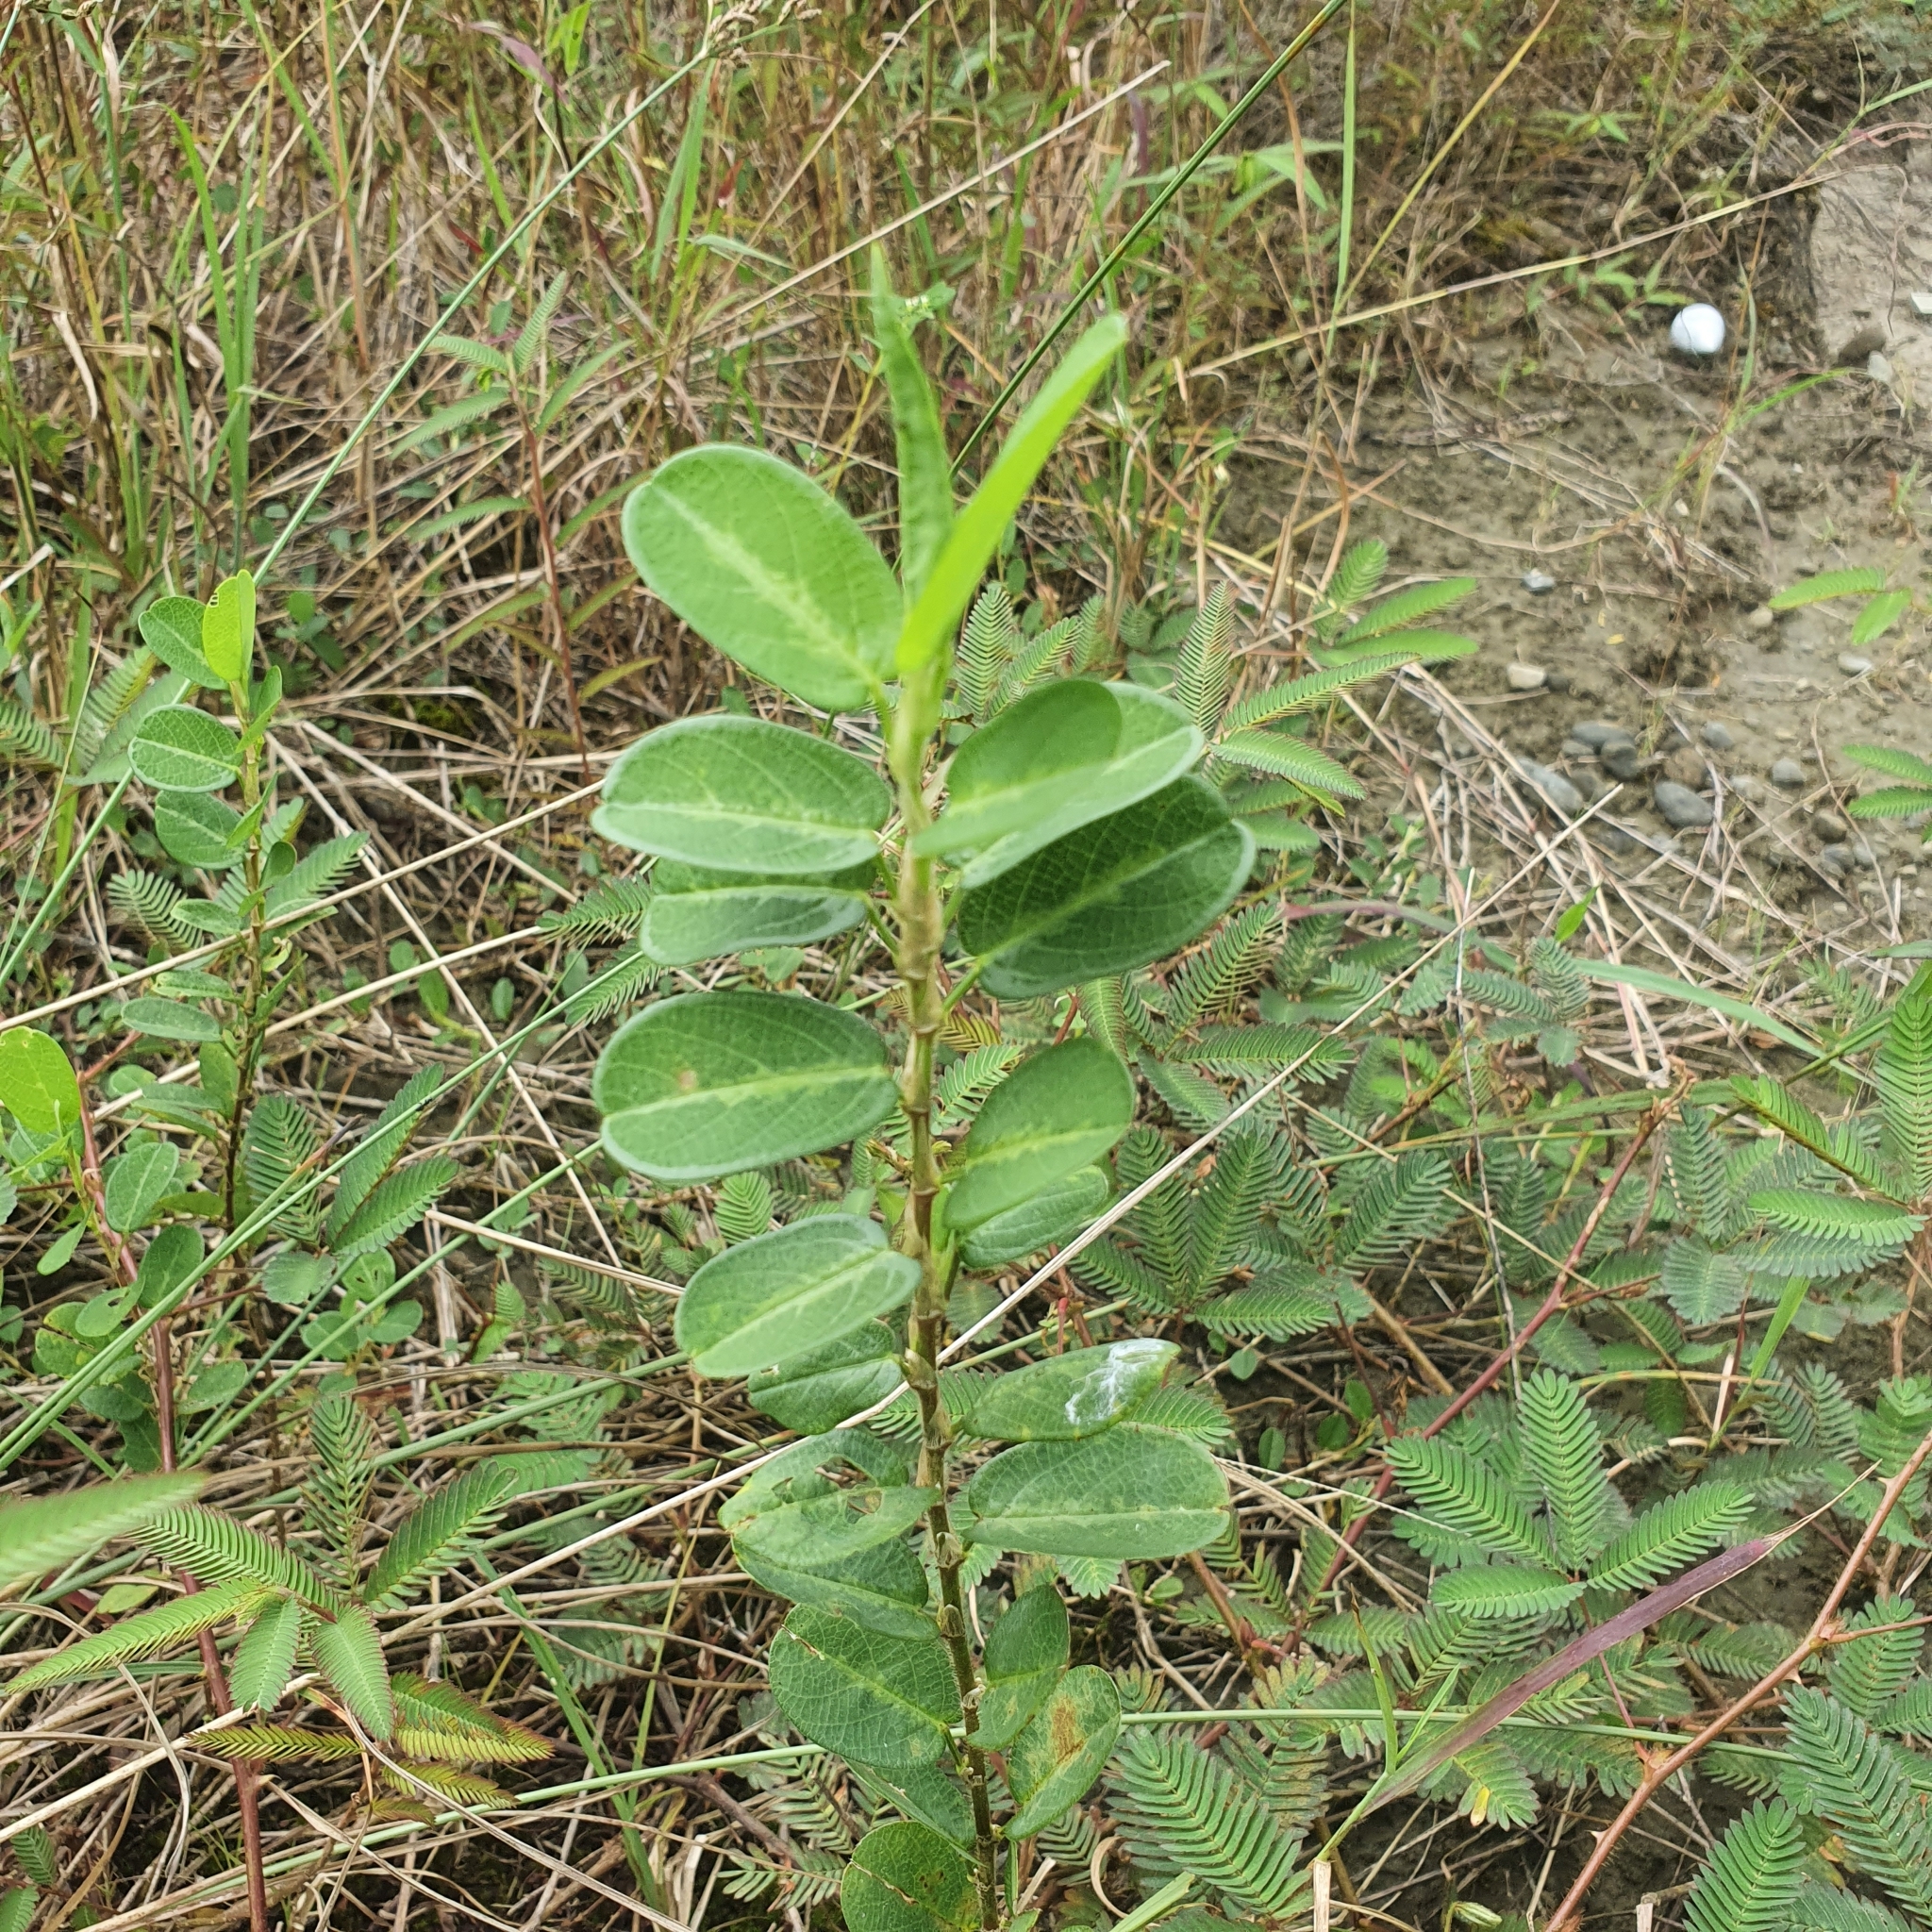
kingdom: Plantae
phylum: Tracheophyta
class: Magnoliopsida
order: Fabales
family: Fabaceae
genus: Alysicarpus
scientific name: Alysicarpus ovalifolius
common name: Alyce clover
